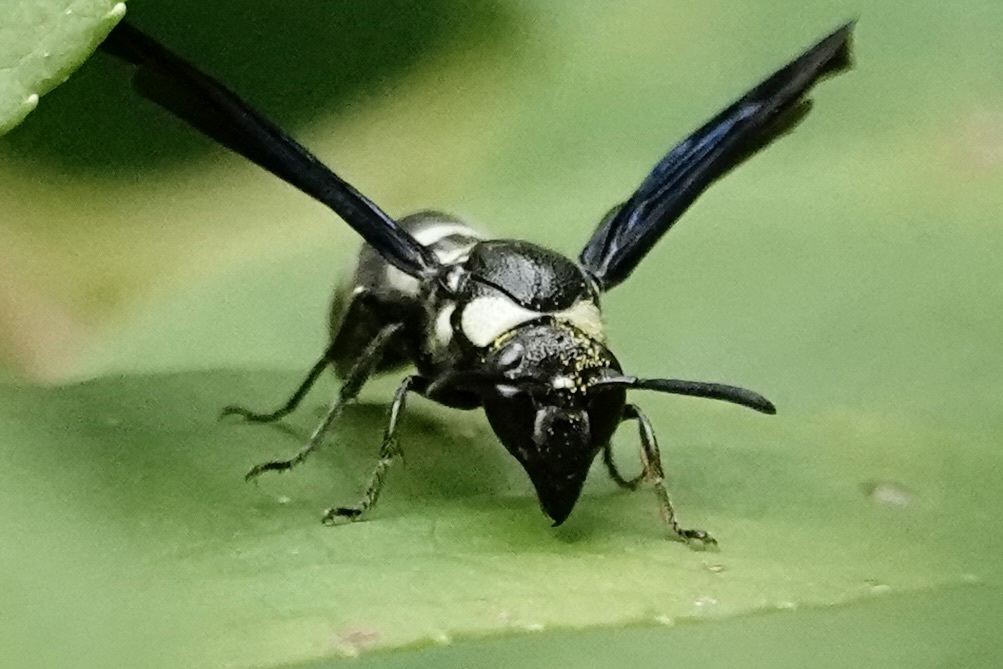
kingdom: Animalia
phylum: Arthropoda
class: Insecta
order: Hymenoptera
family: Eumenidae
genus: Pseudodynerus
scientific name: Pseudodynerus quadrisectus
